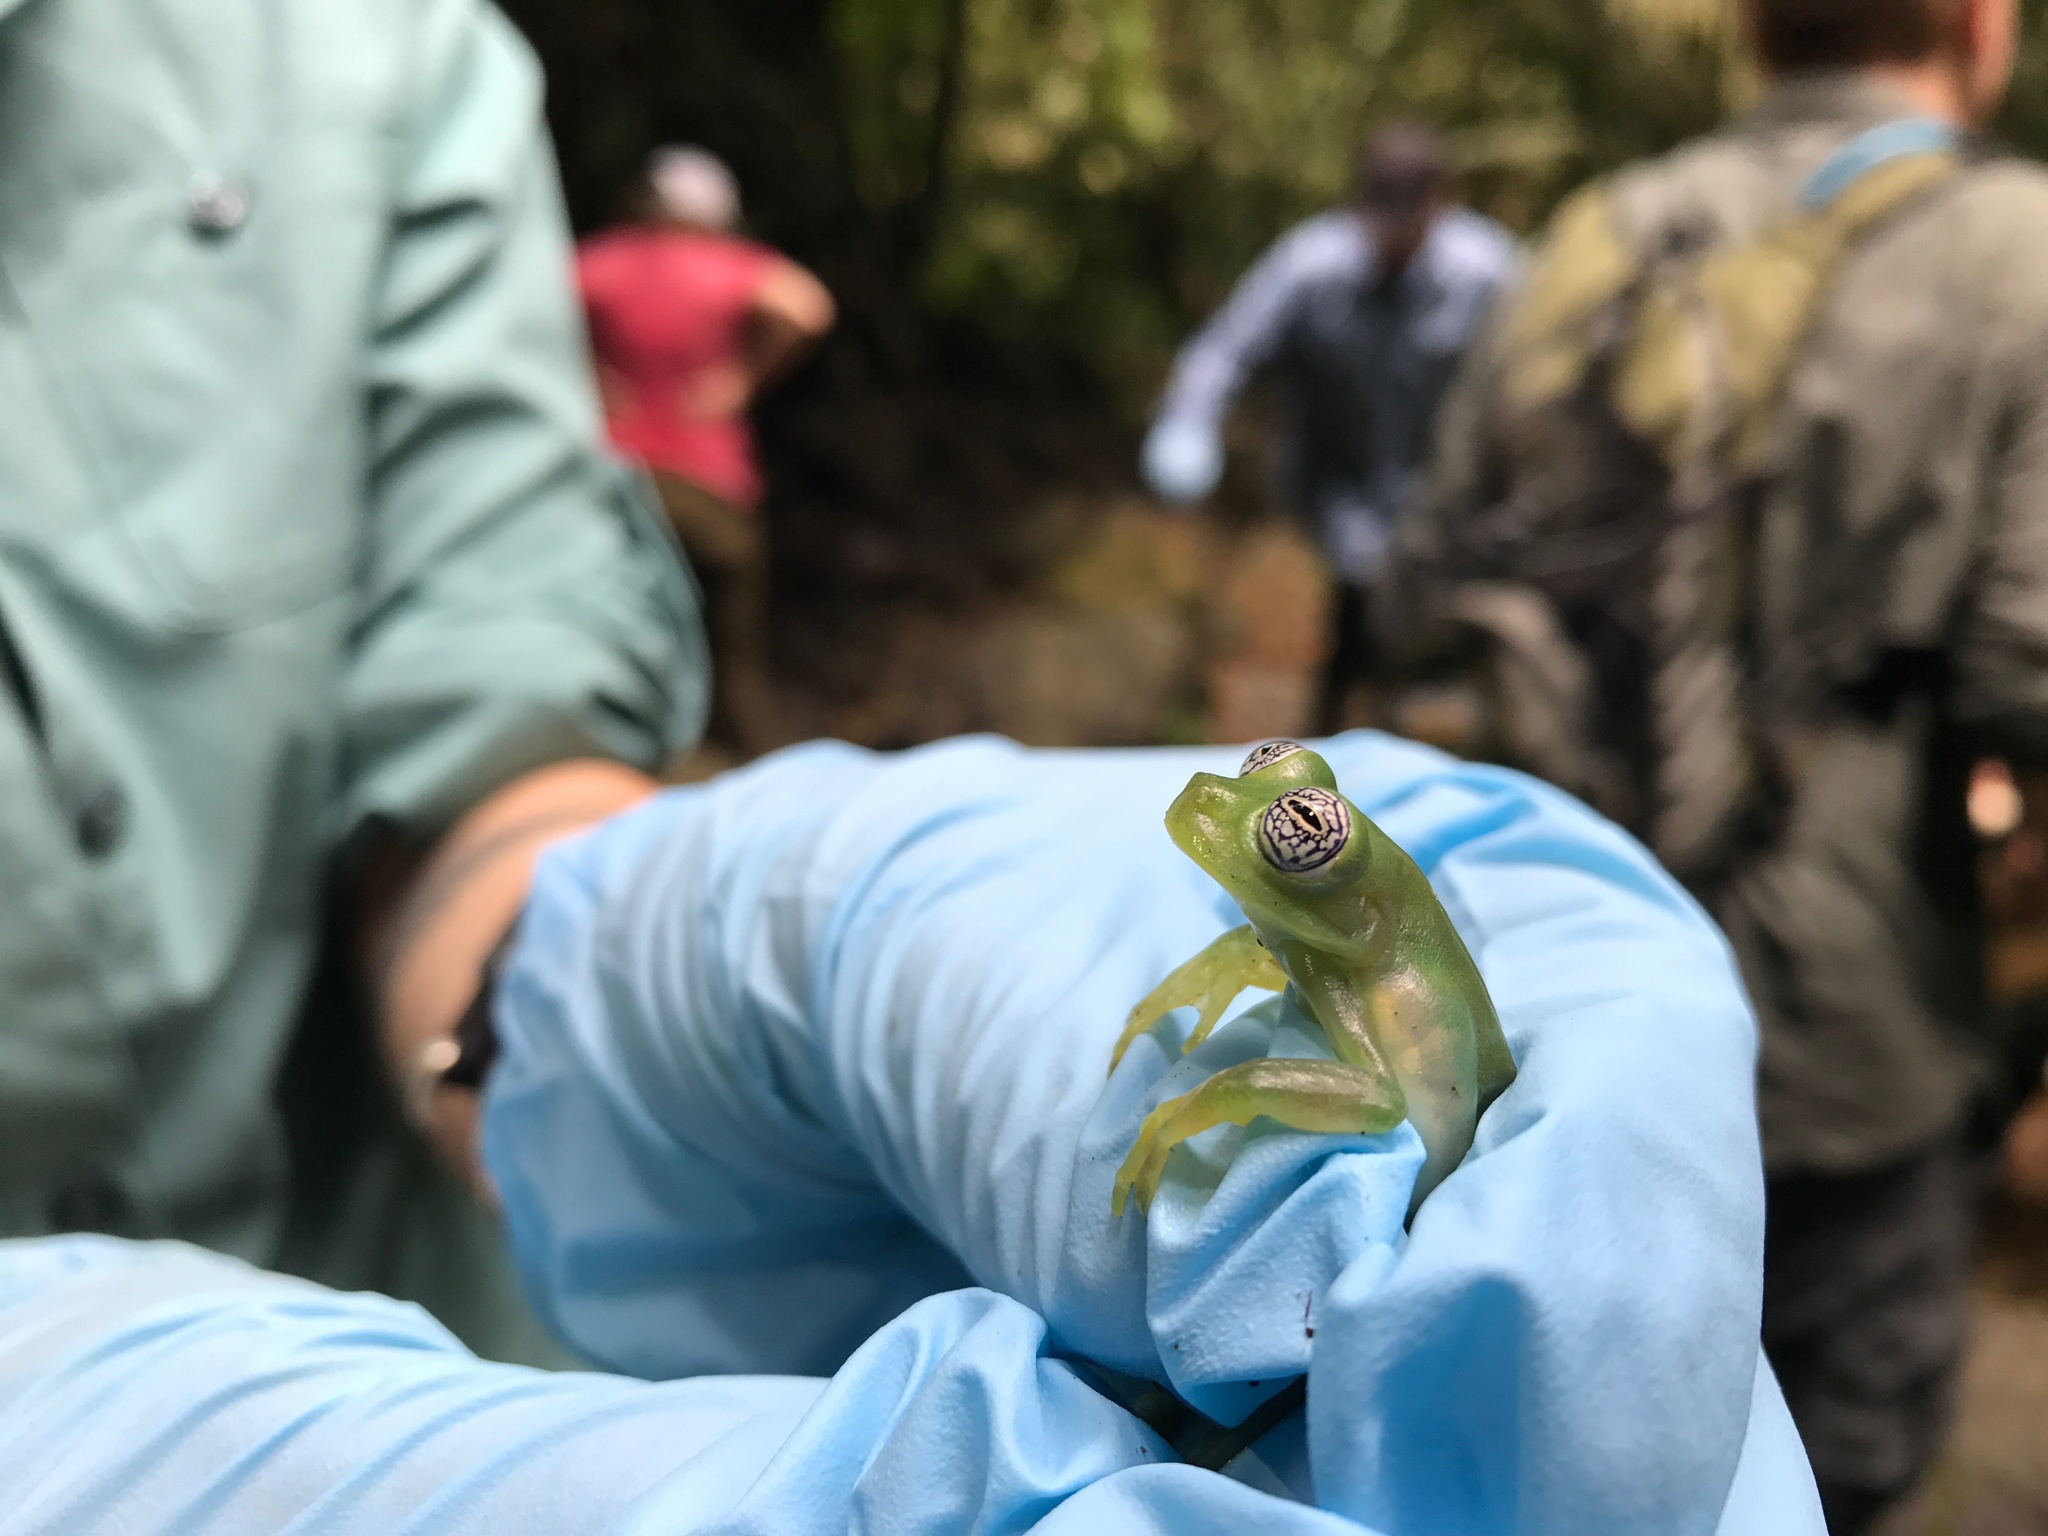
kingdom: Animalia
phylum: Chordata
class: Amphibia
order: Anura
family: Centrolenidae
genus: Sachatamia
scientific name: Sachatamia ilex
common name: Rana de cristal de ojo esplendoroso
